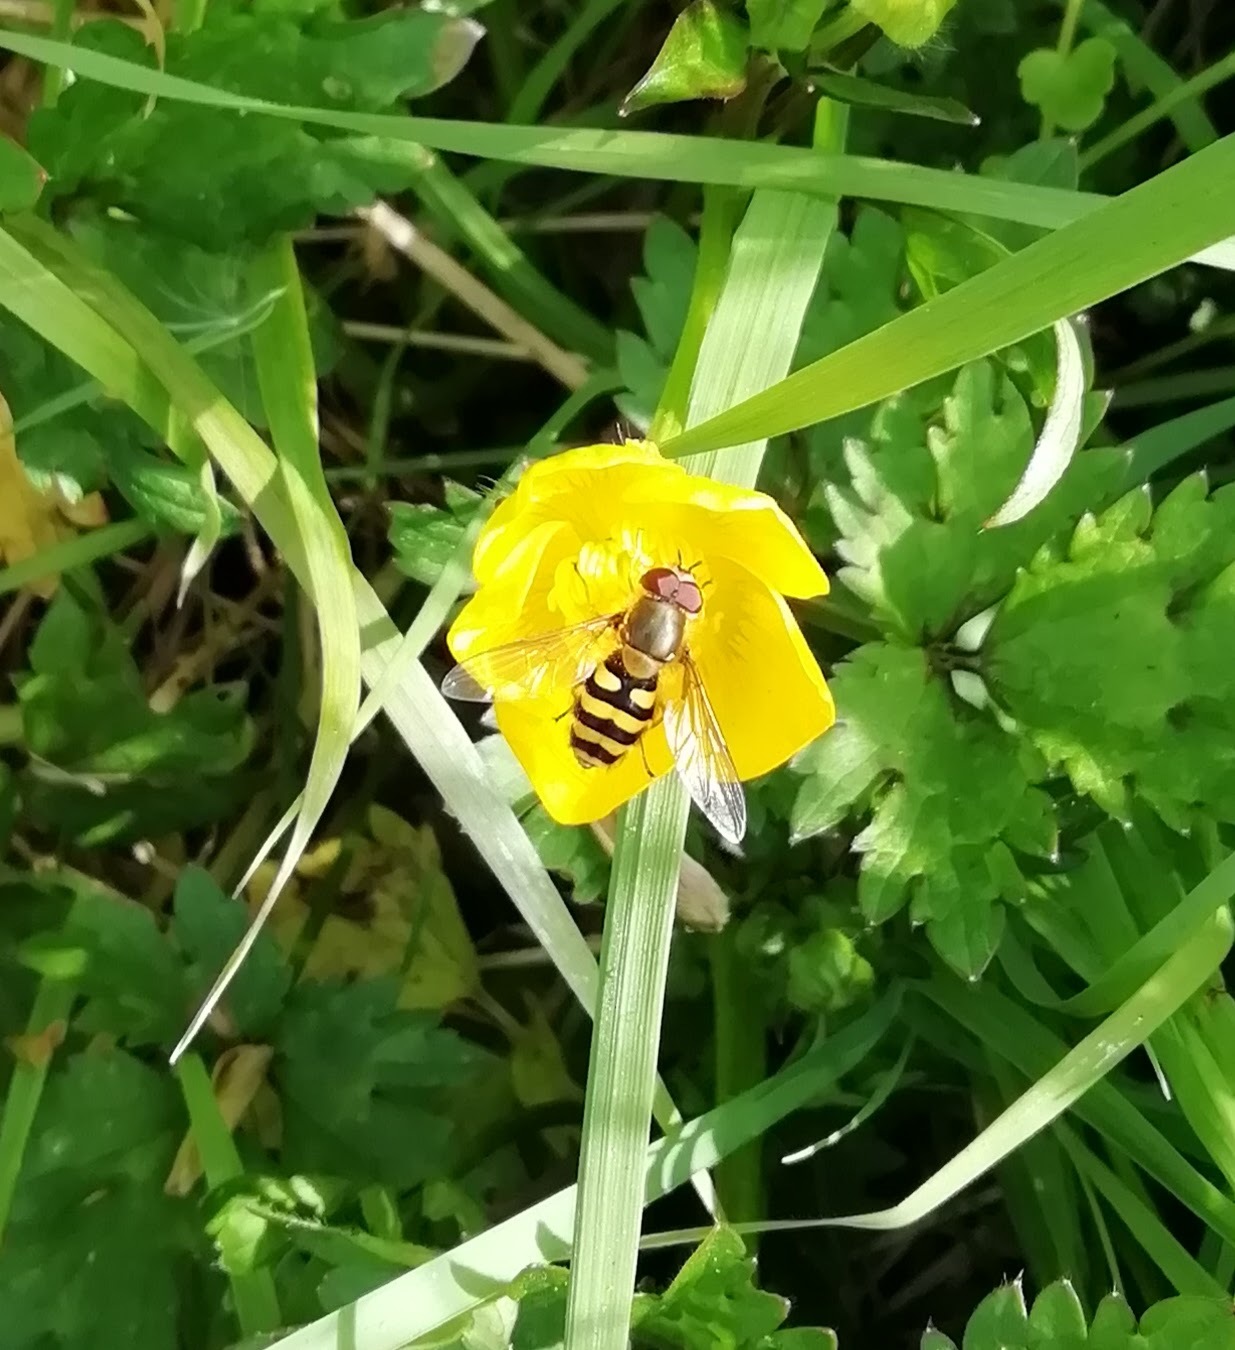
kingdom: Animalia
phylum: Arthropoda
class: Insecta
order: Diptera
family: Syrphidae
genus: Syrphus
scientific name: Syrphus
